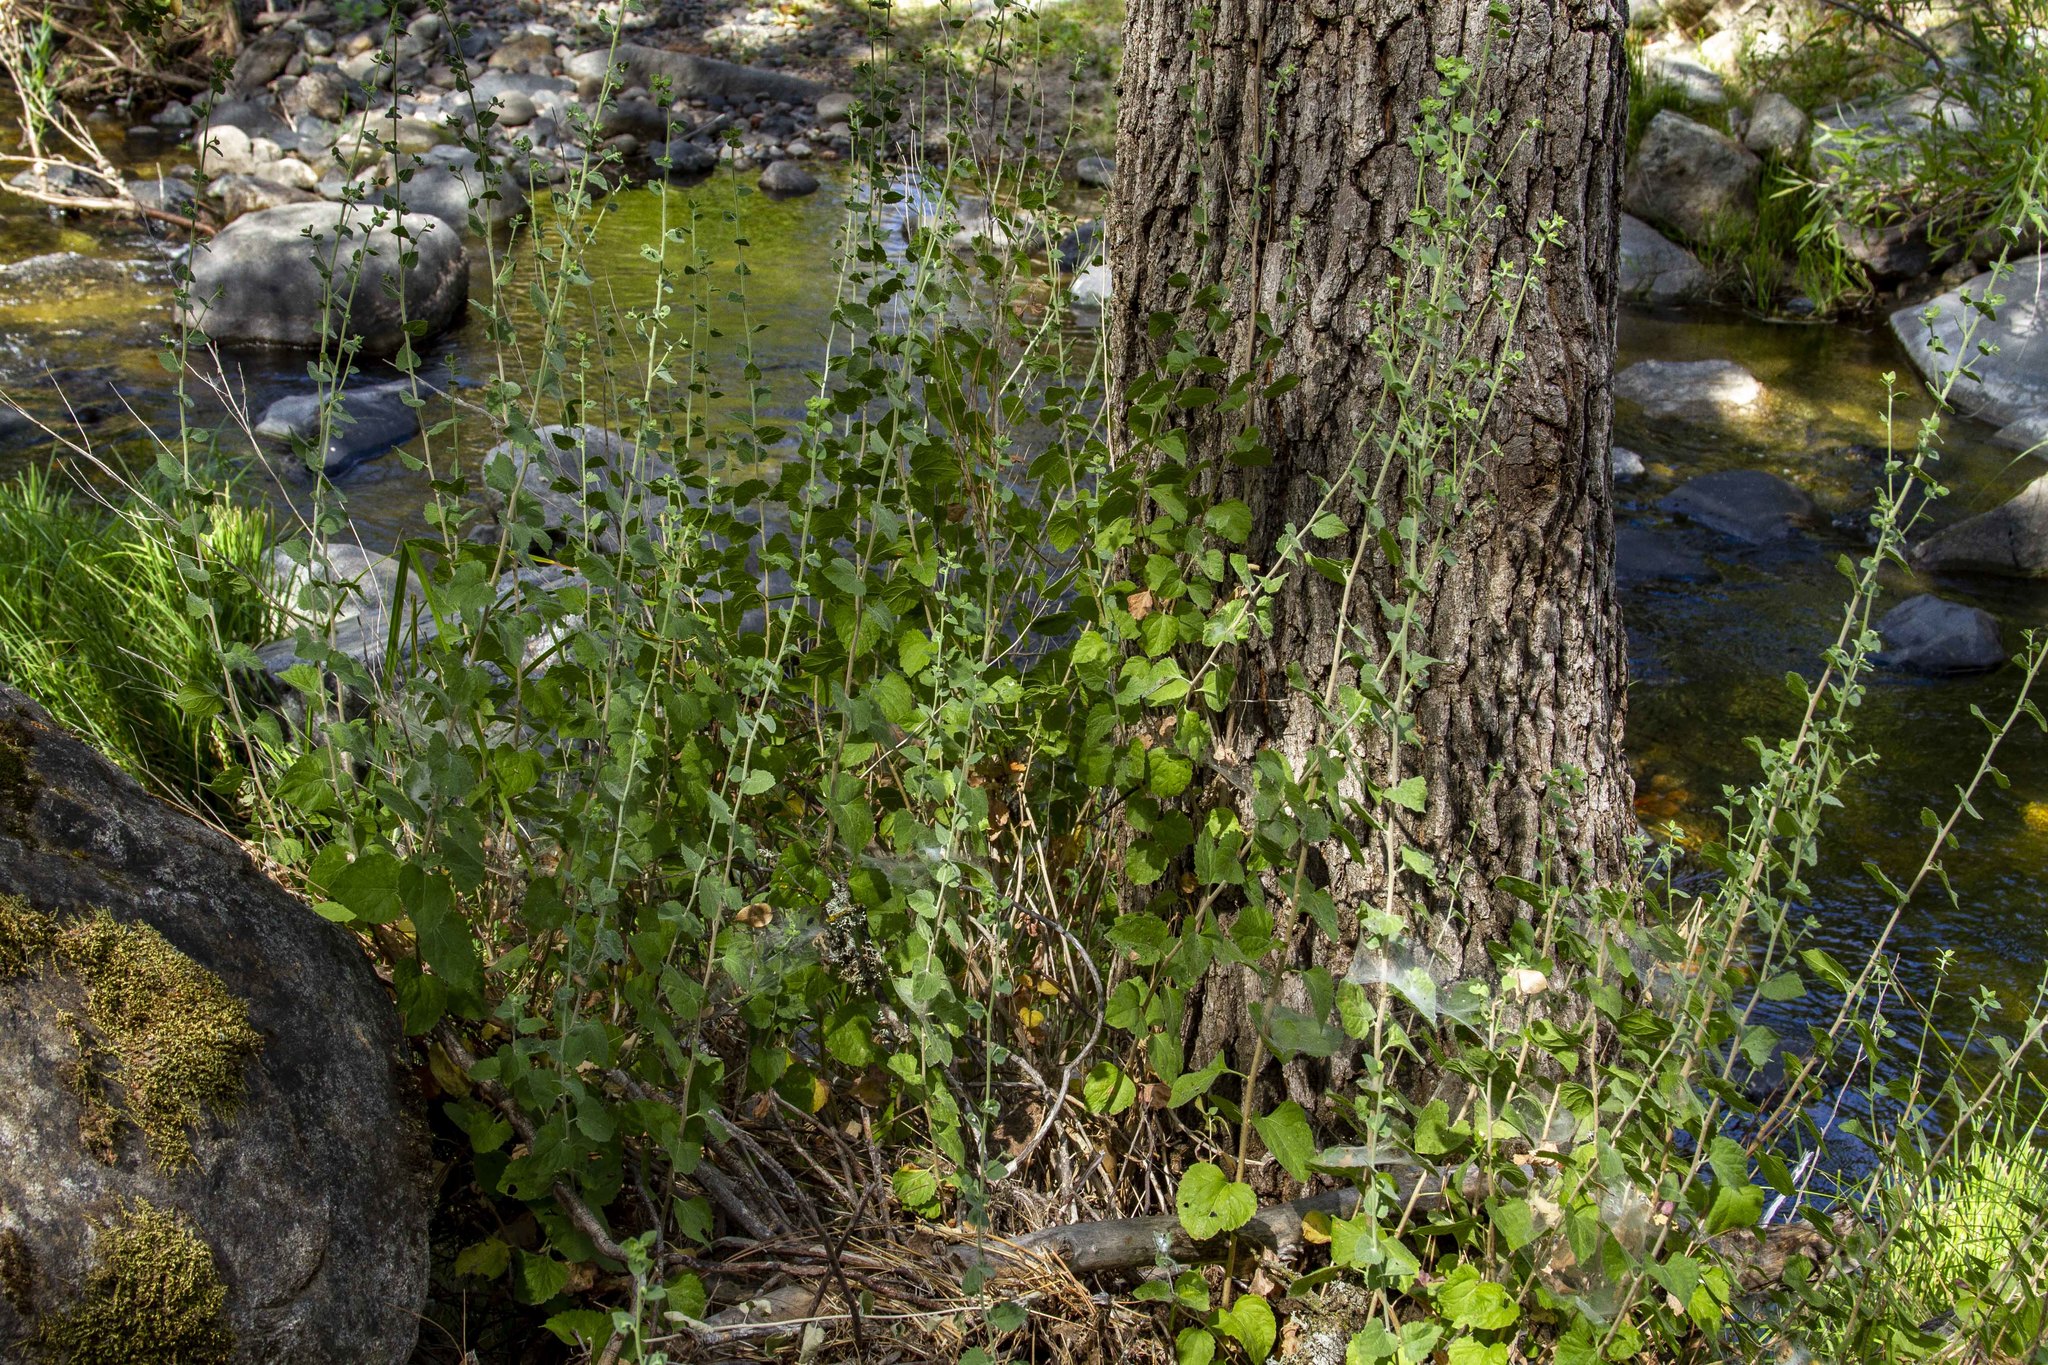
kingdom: Plantae
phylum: Tracheophyta
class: Magnoliopsida
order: Asterales
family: Asteraceae
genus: Brickellia
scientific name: Brickellia californica
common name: California brickellbush
